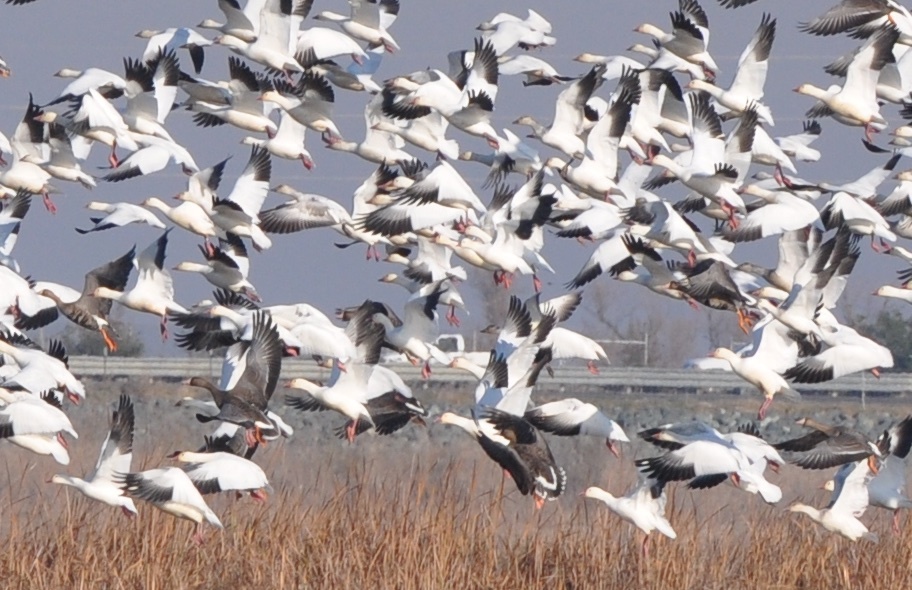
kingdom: Animalia
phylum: Chordata
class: Aves
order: Anseriformes
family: Anatidae
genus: Anser
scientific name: Anser caerulescens
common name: Snow goose
